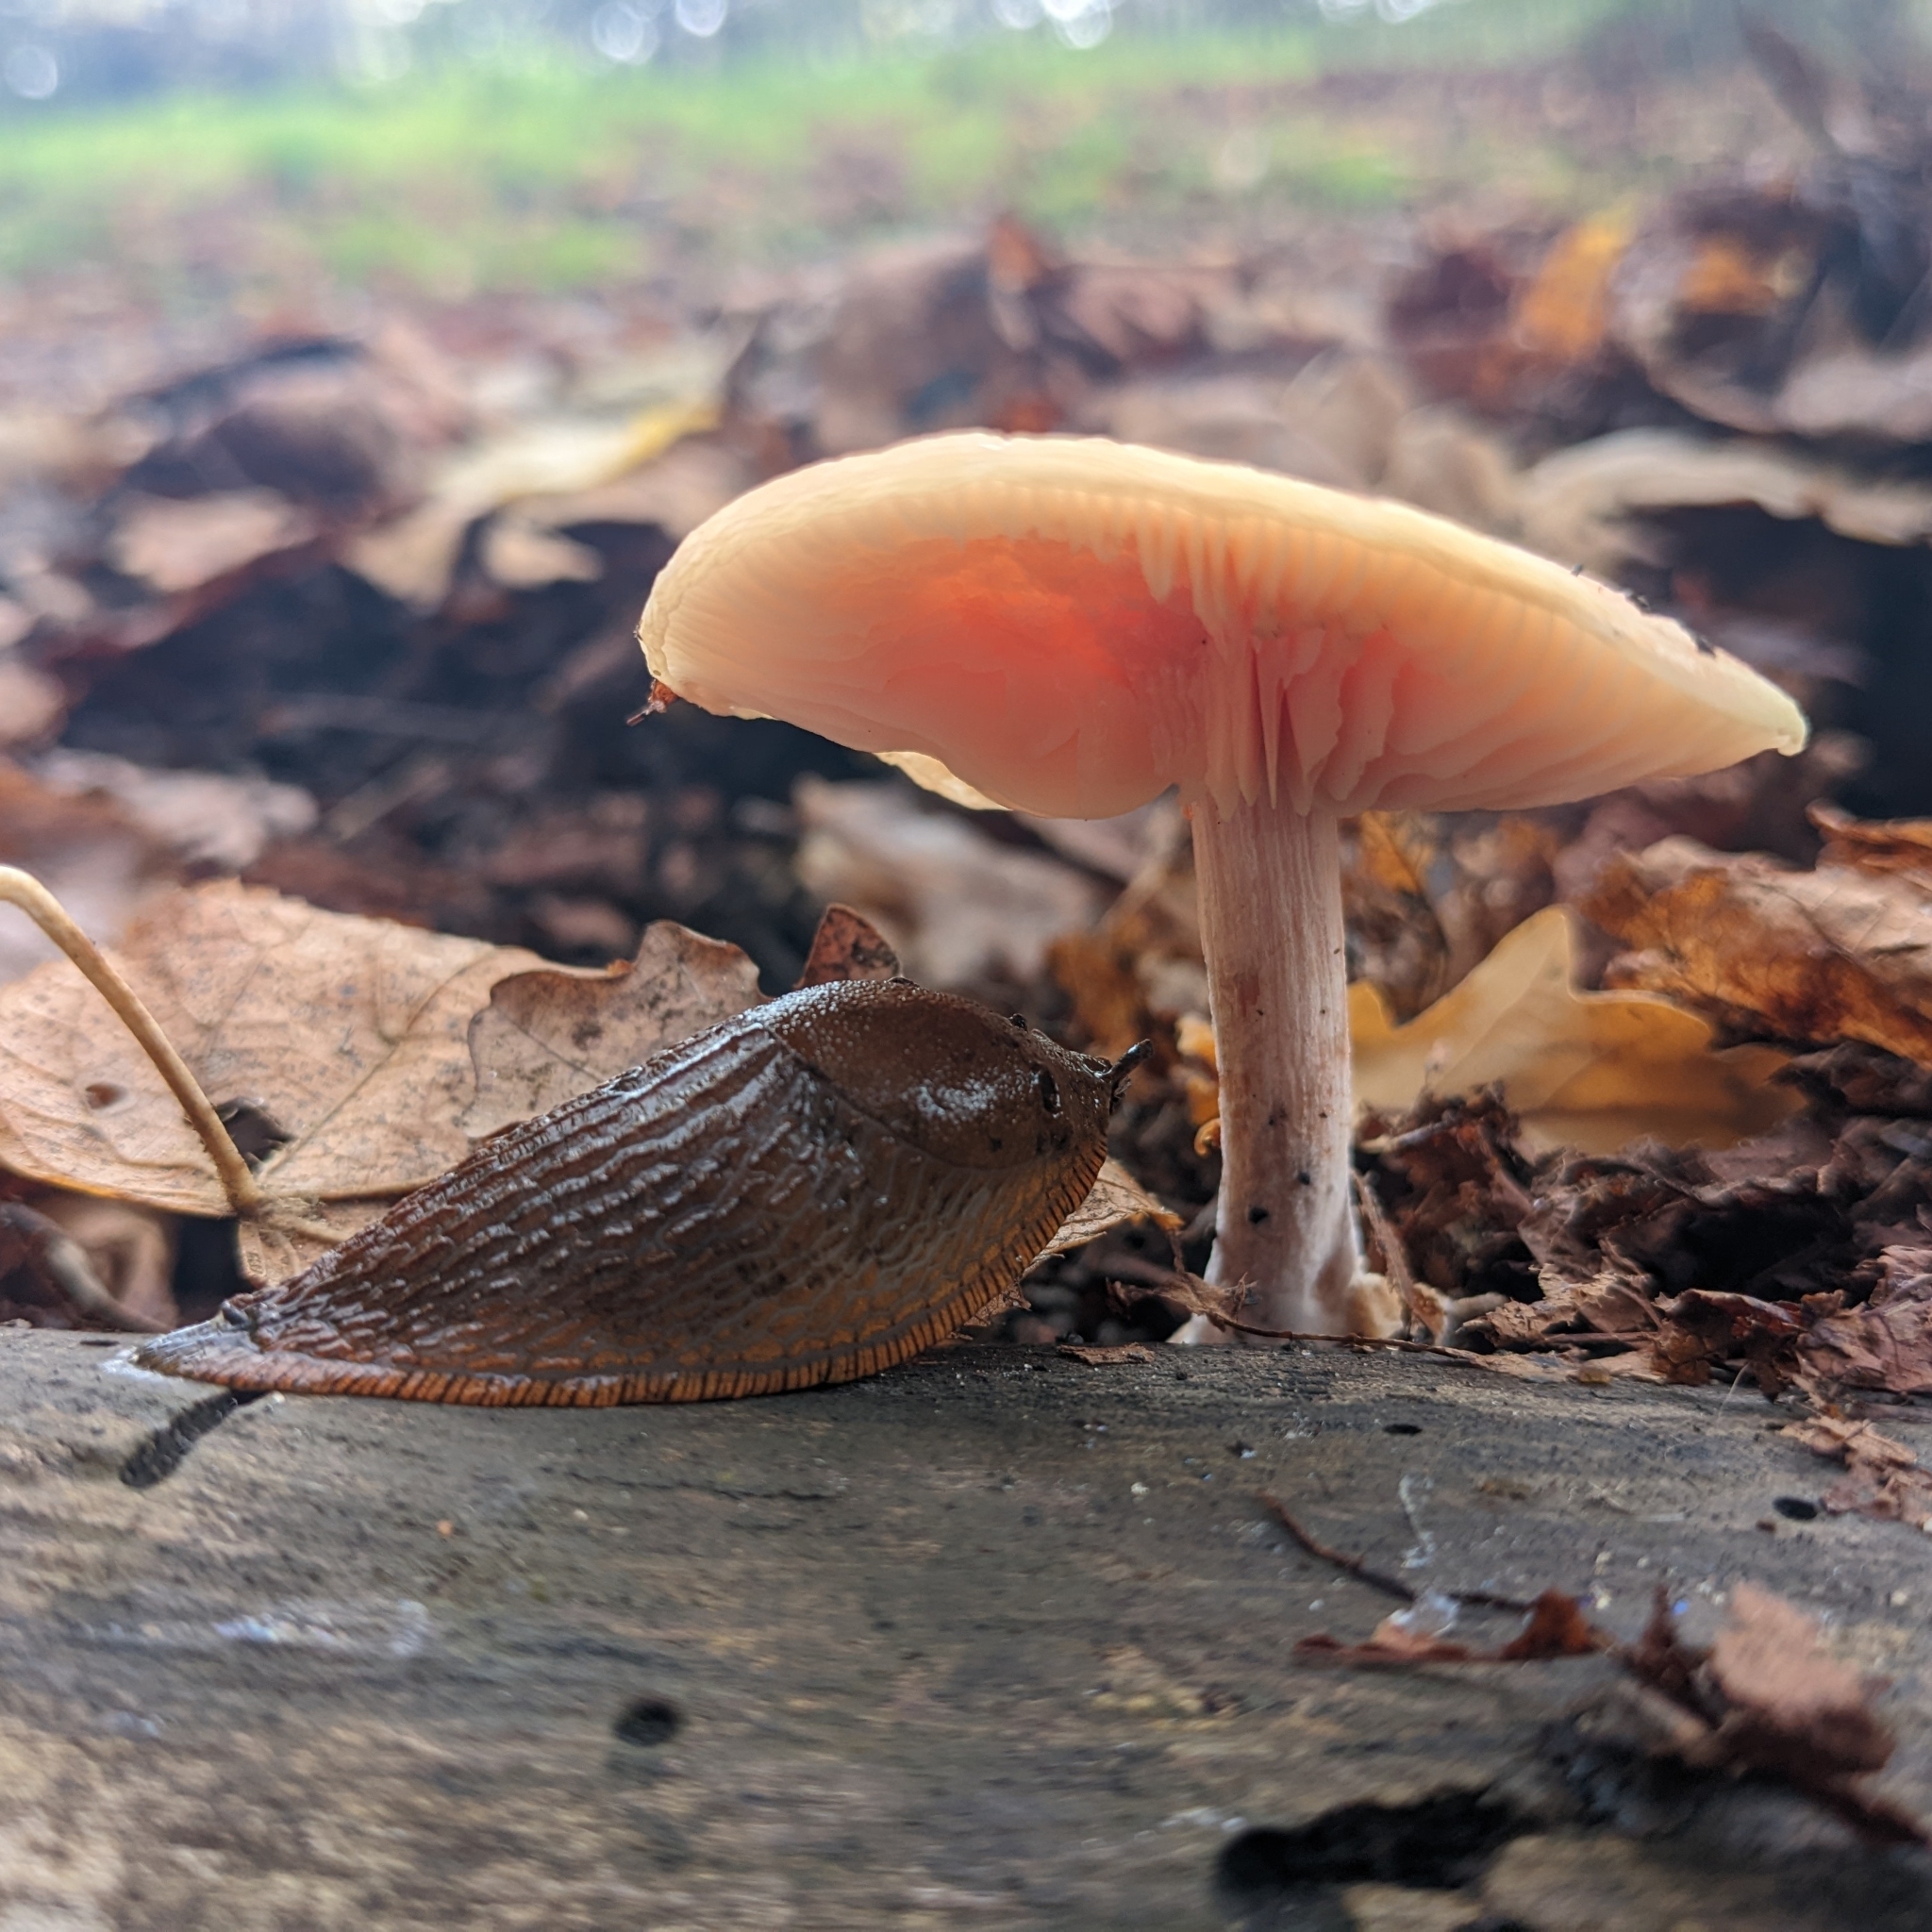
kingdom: Fungi
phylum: Basidiomycota
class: Agaricomycetes
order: Agaricales
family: Physalacriaceae
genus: Rhodotus
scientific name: Rhodotus palmatus
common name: Wrinkled peach
